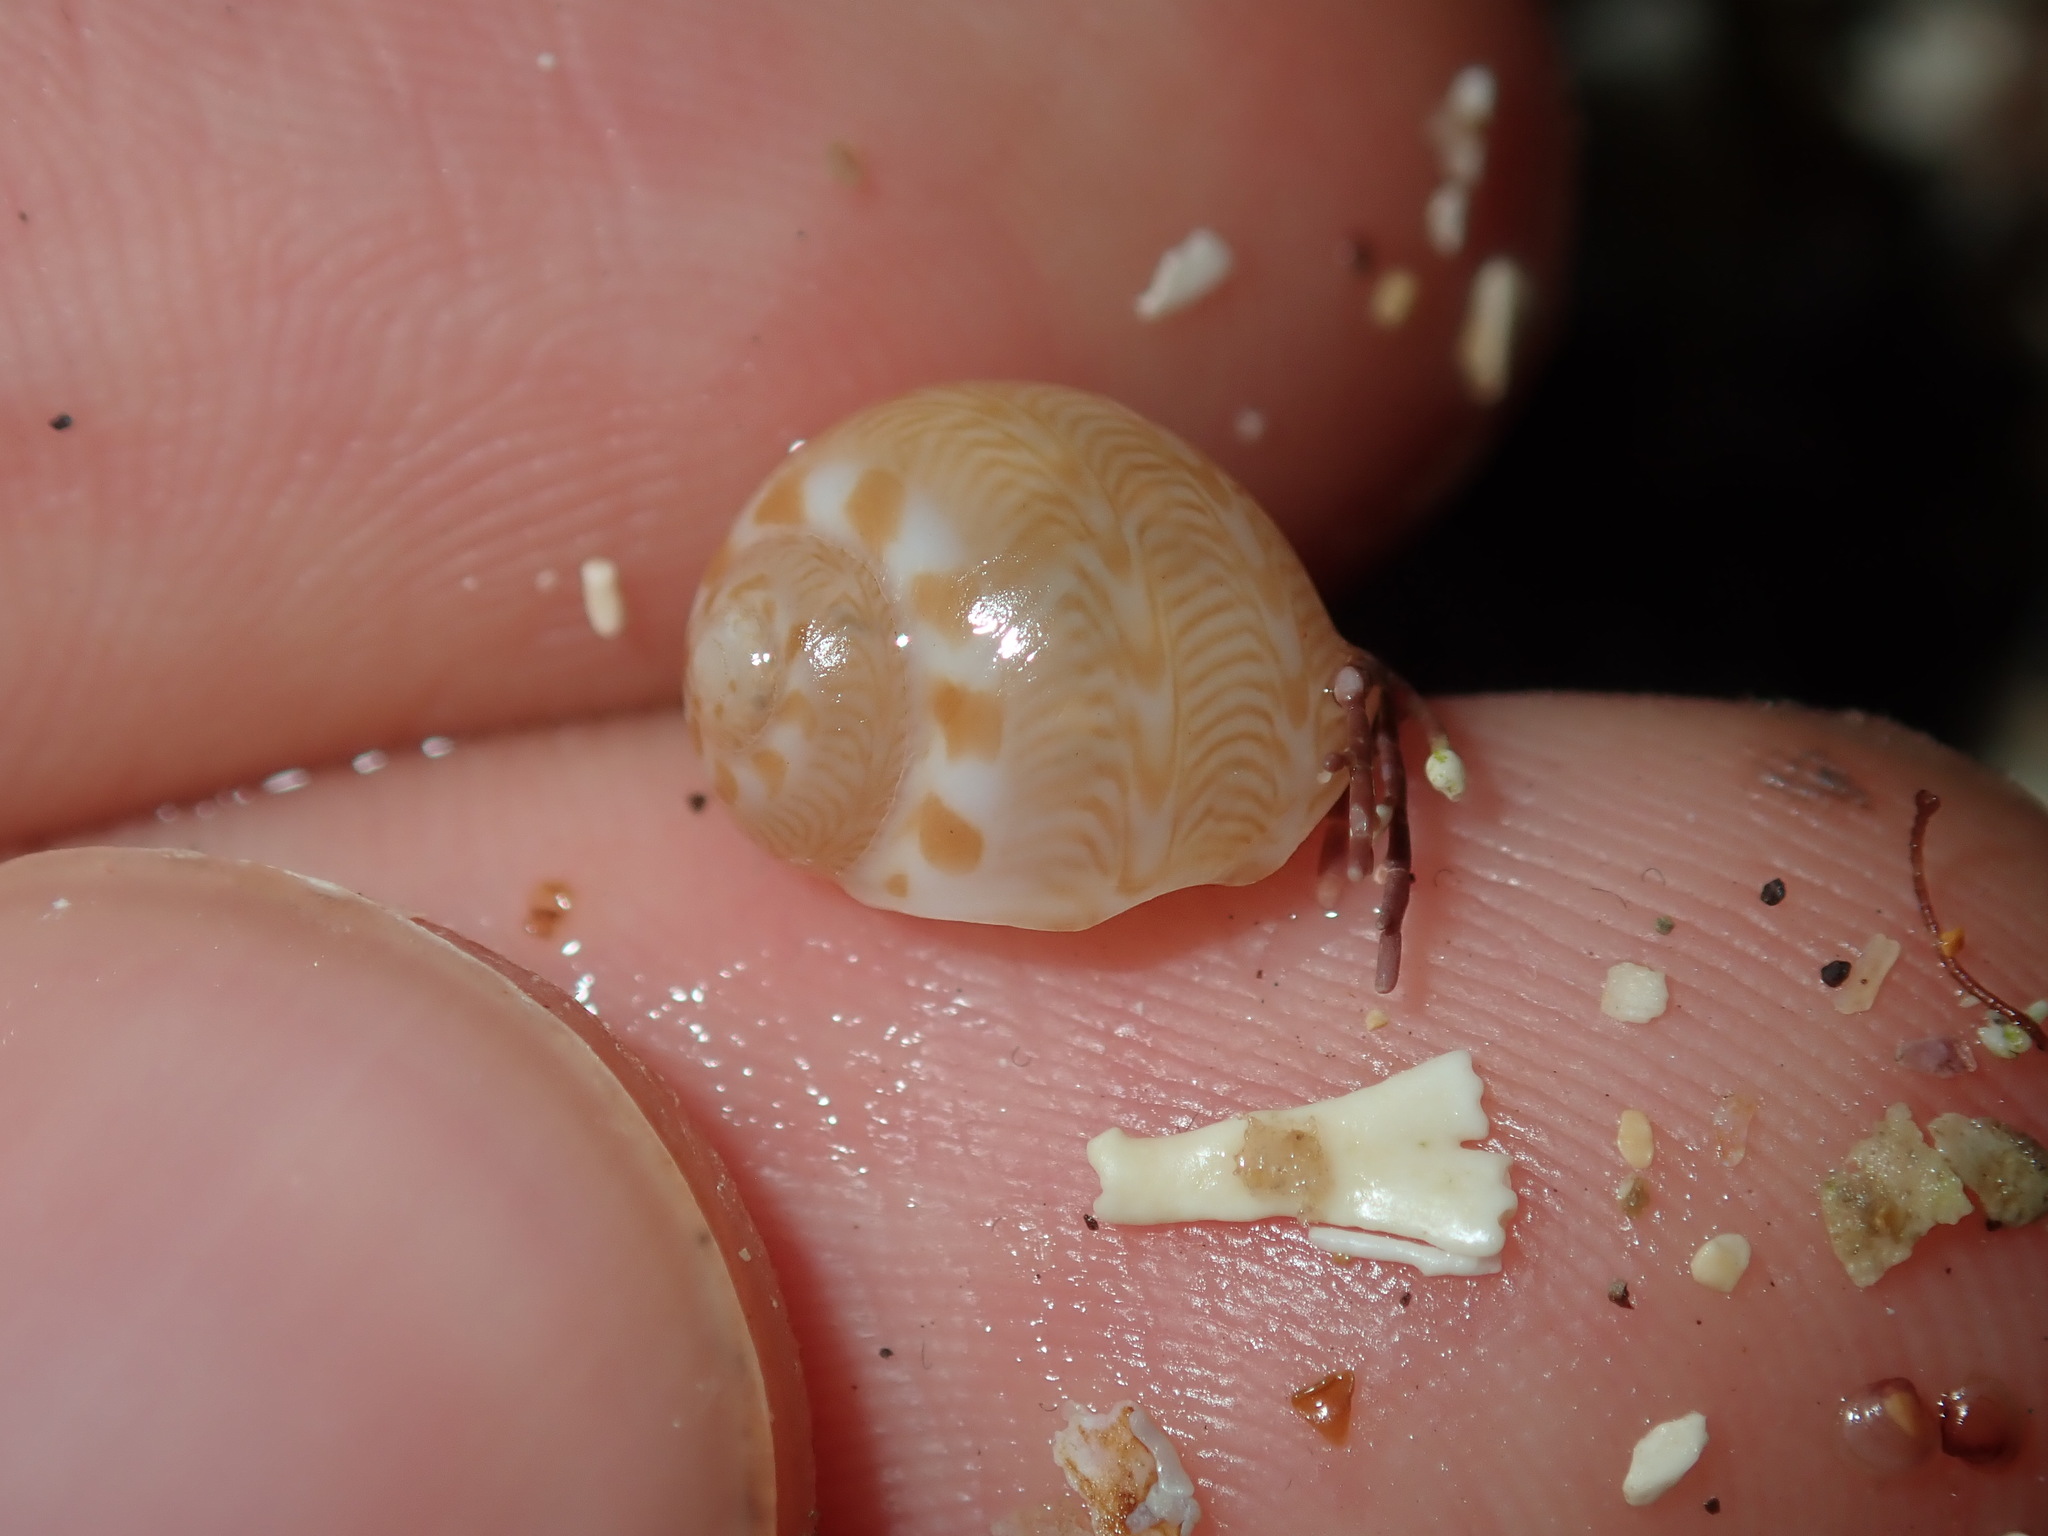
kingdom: Animalia
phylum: Mollusca
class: Gastropoda
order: Littorinimorpha
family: Naticidae
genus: Tanea
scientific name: Tanea sagittata
